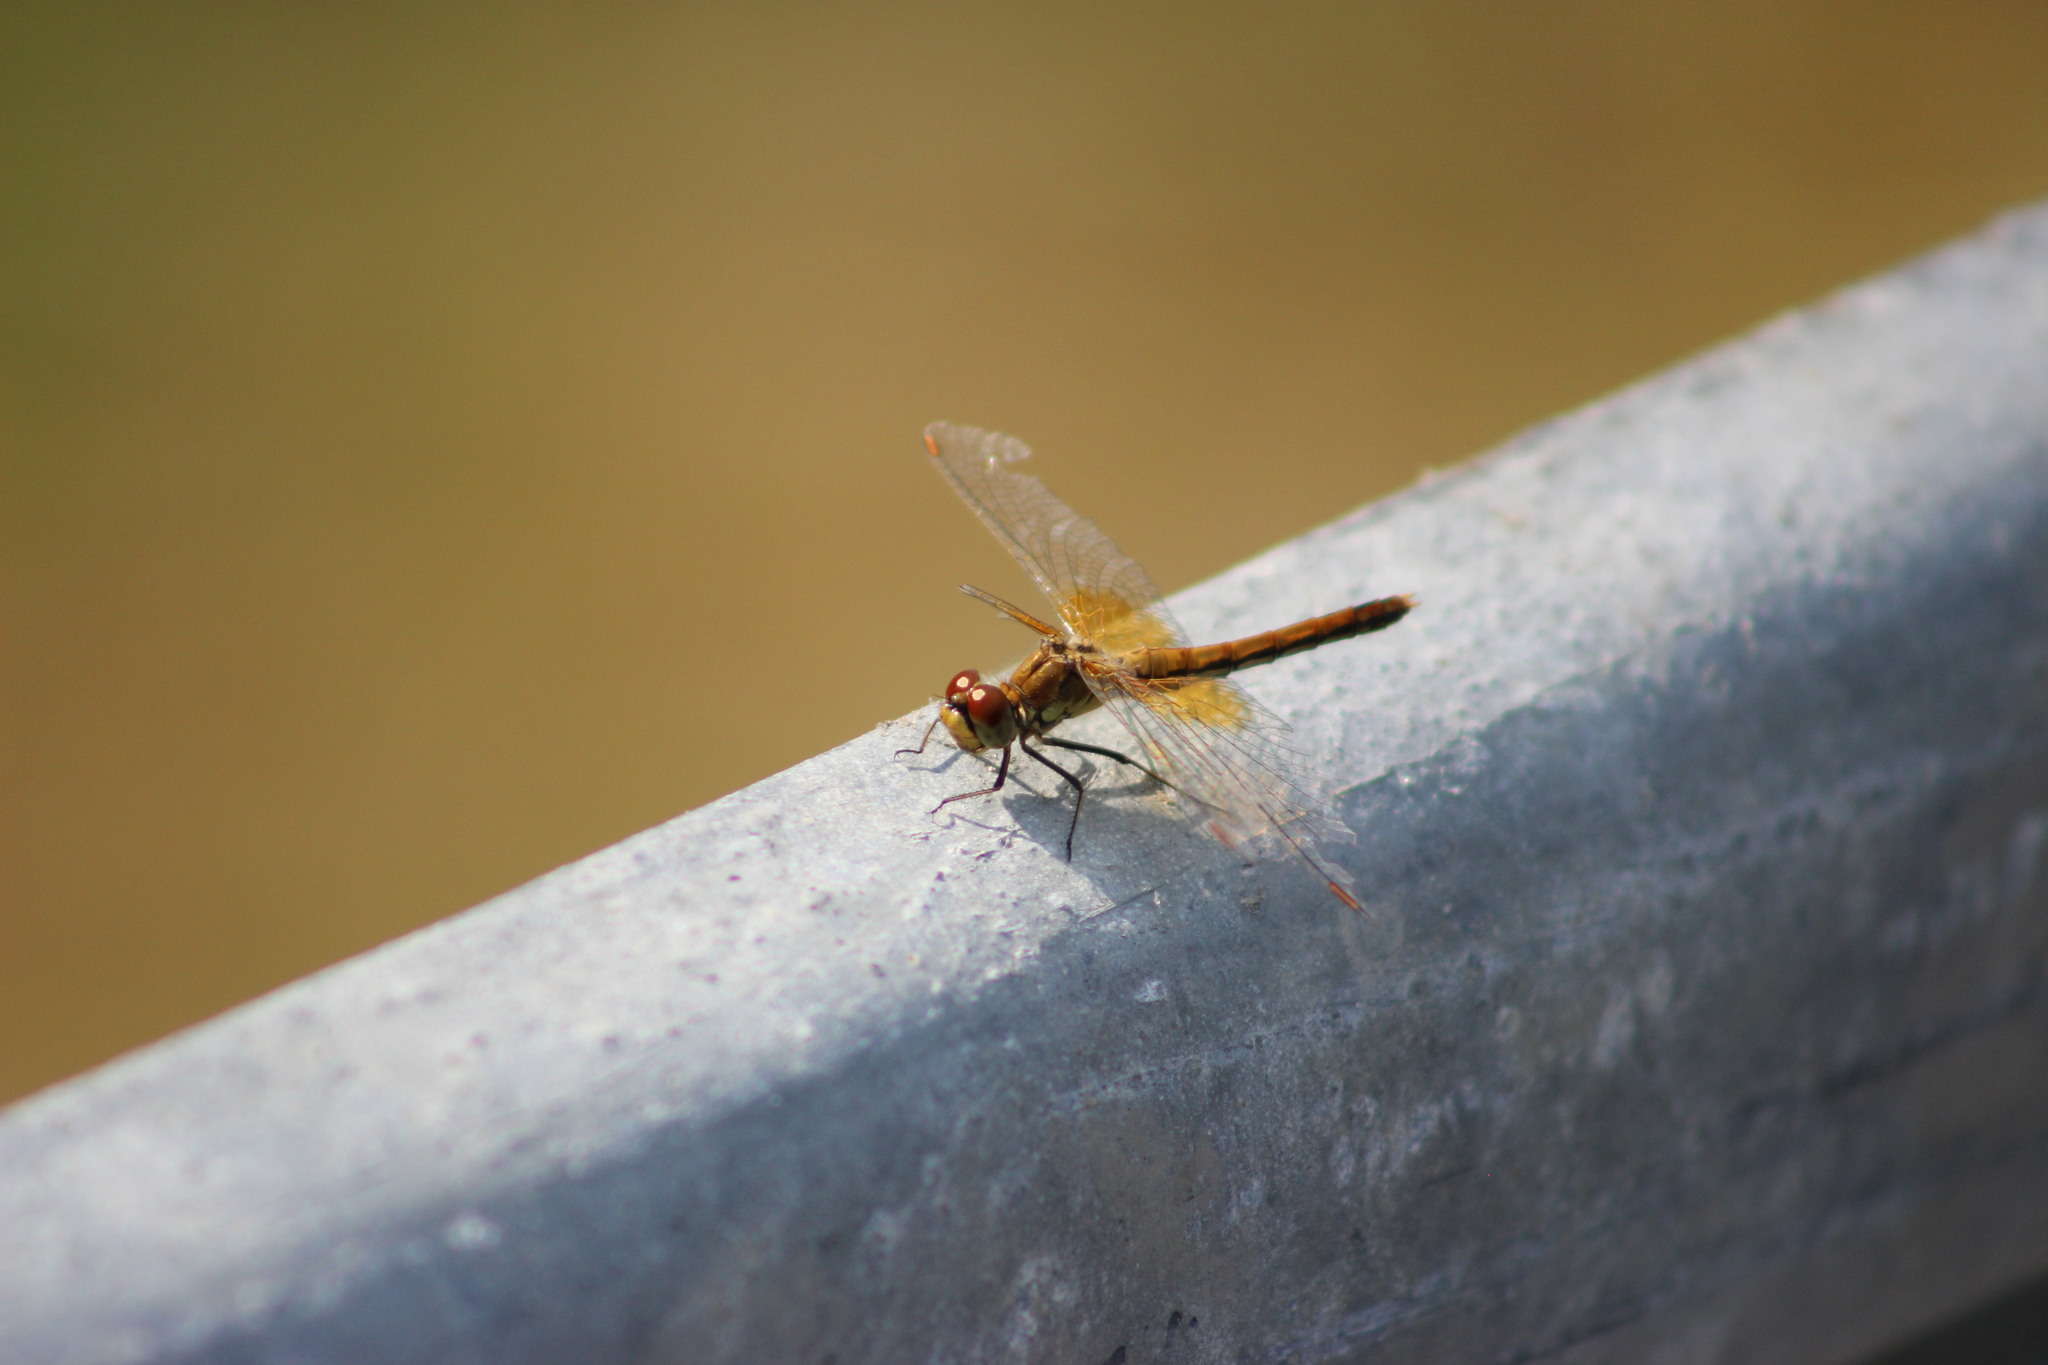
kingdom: Animalia
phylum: Arthropoda
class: Insecta
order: Odonata
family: Libellulidae
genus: Sympetrum
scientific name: Sympetrum flaveolum
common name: Yellow-winged darter
